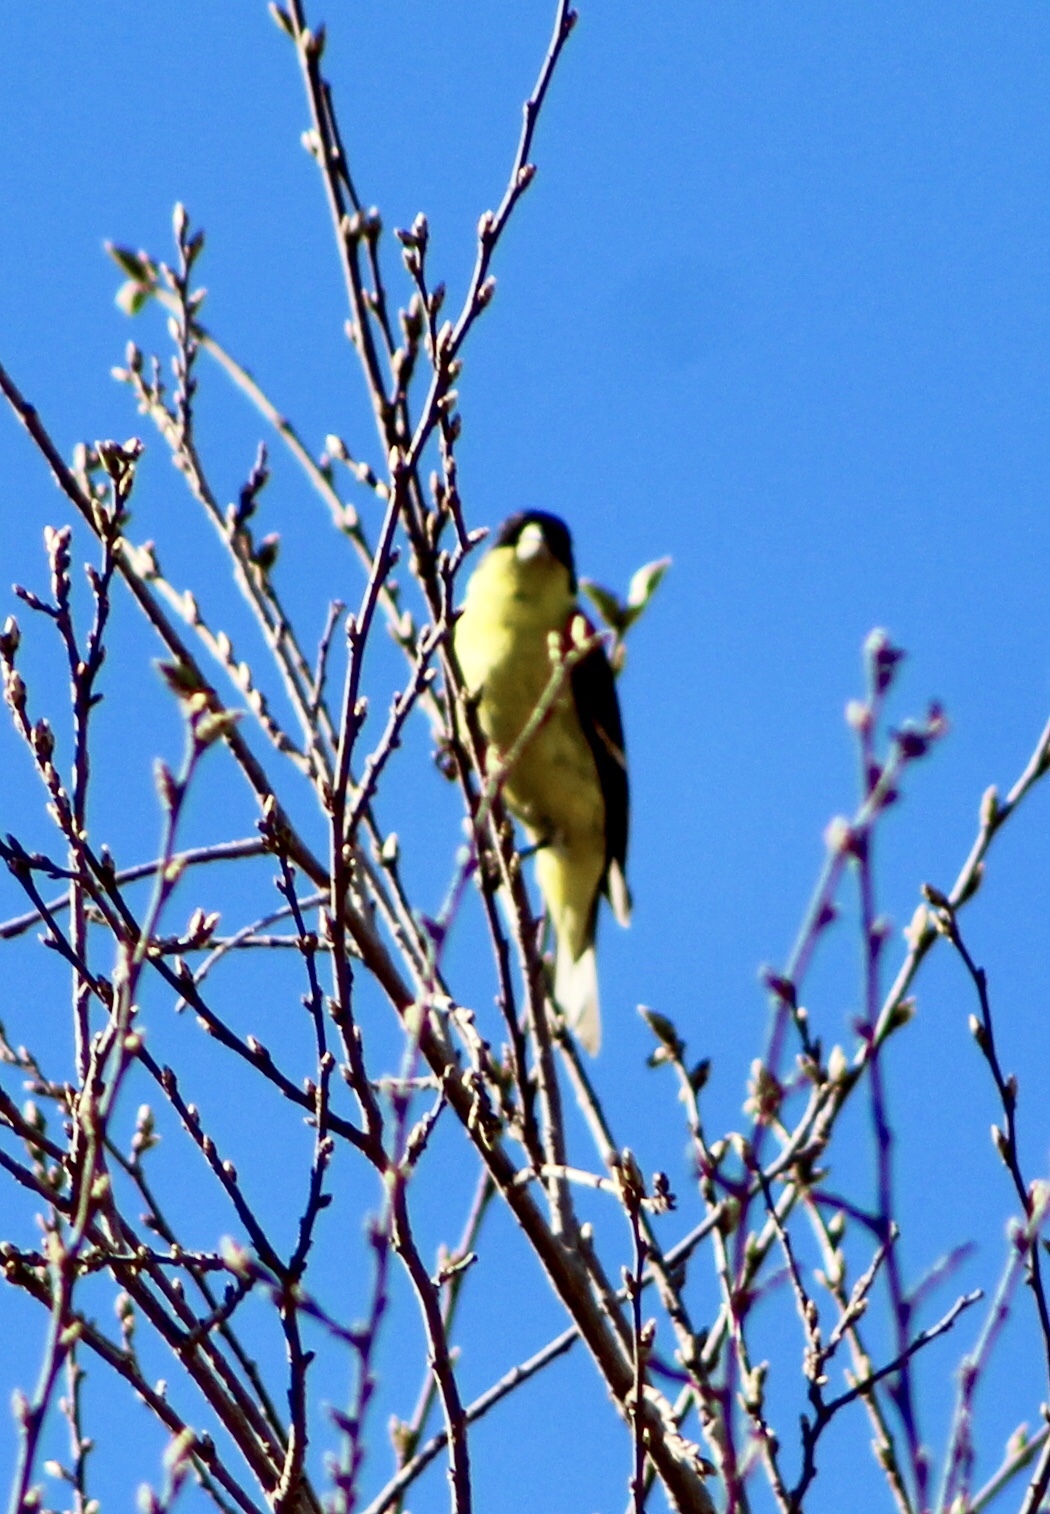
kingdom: Animalia
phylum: Chordata
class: Aves
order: Passeriformes
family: Fringillidae
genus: Spinus
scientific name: Spinus psaltria
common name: Lesser goldfinch
